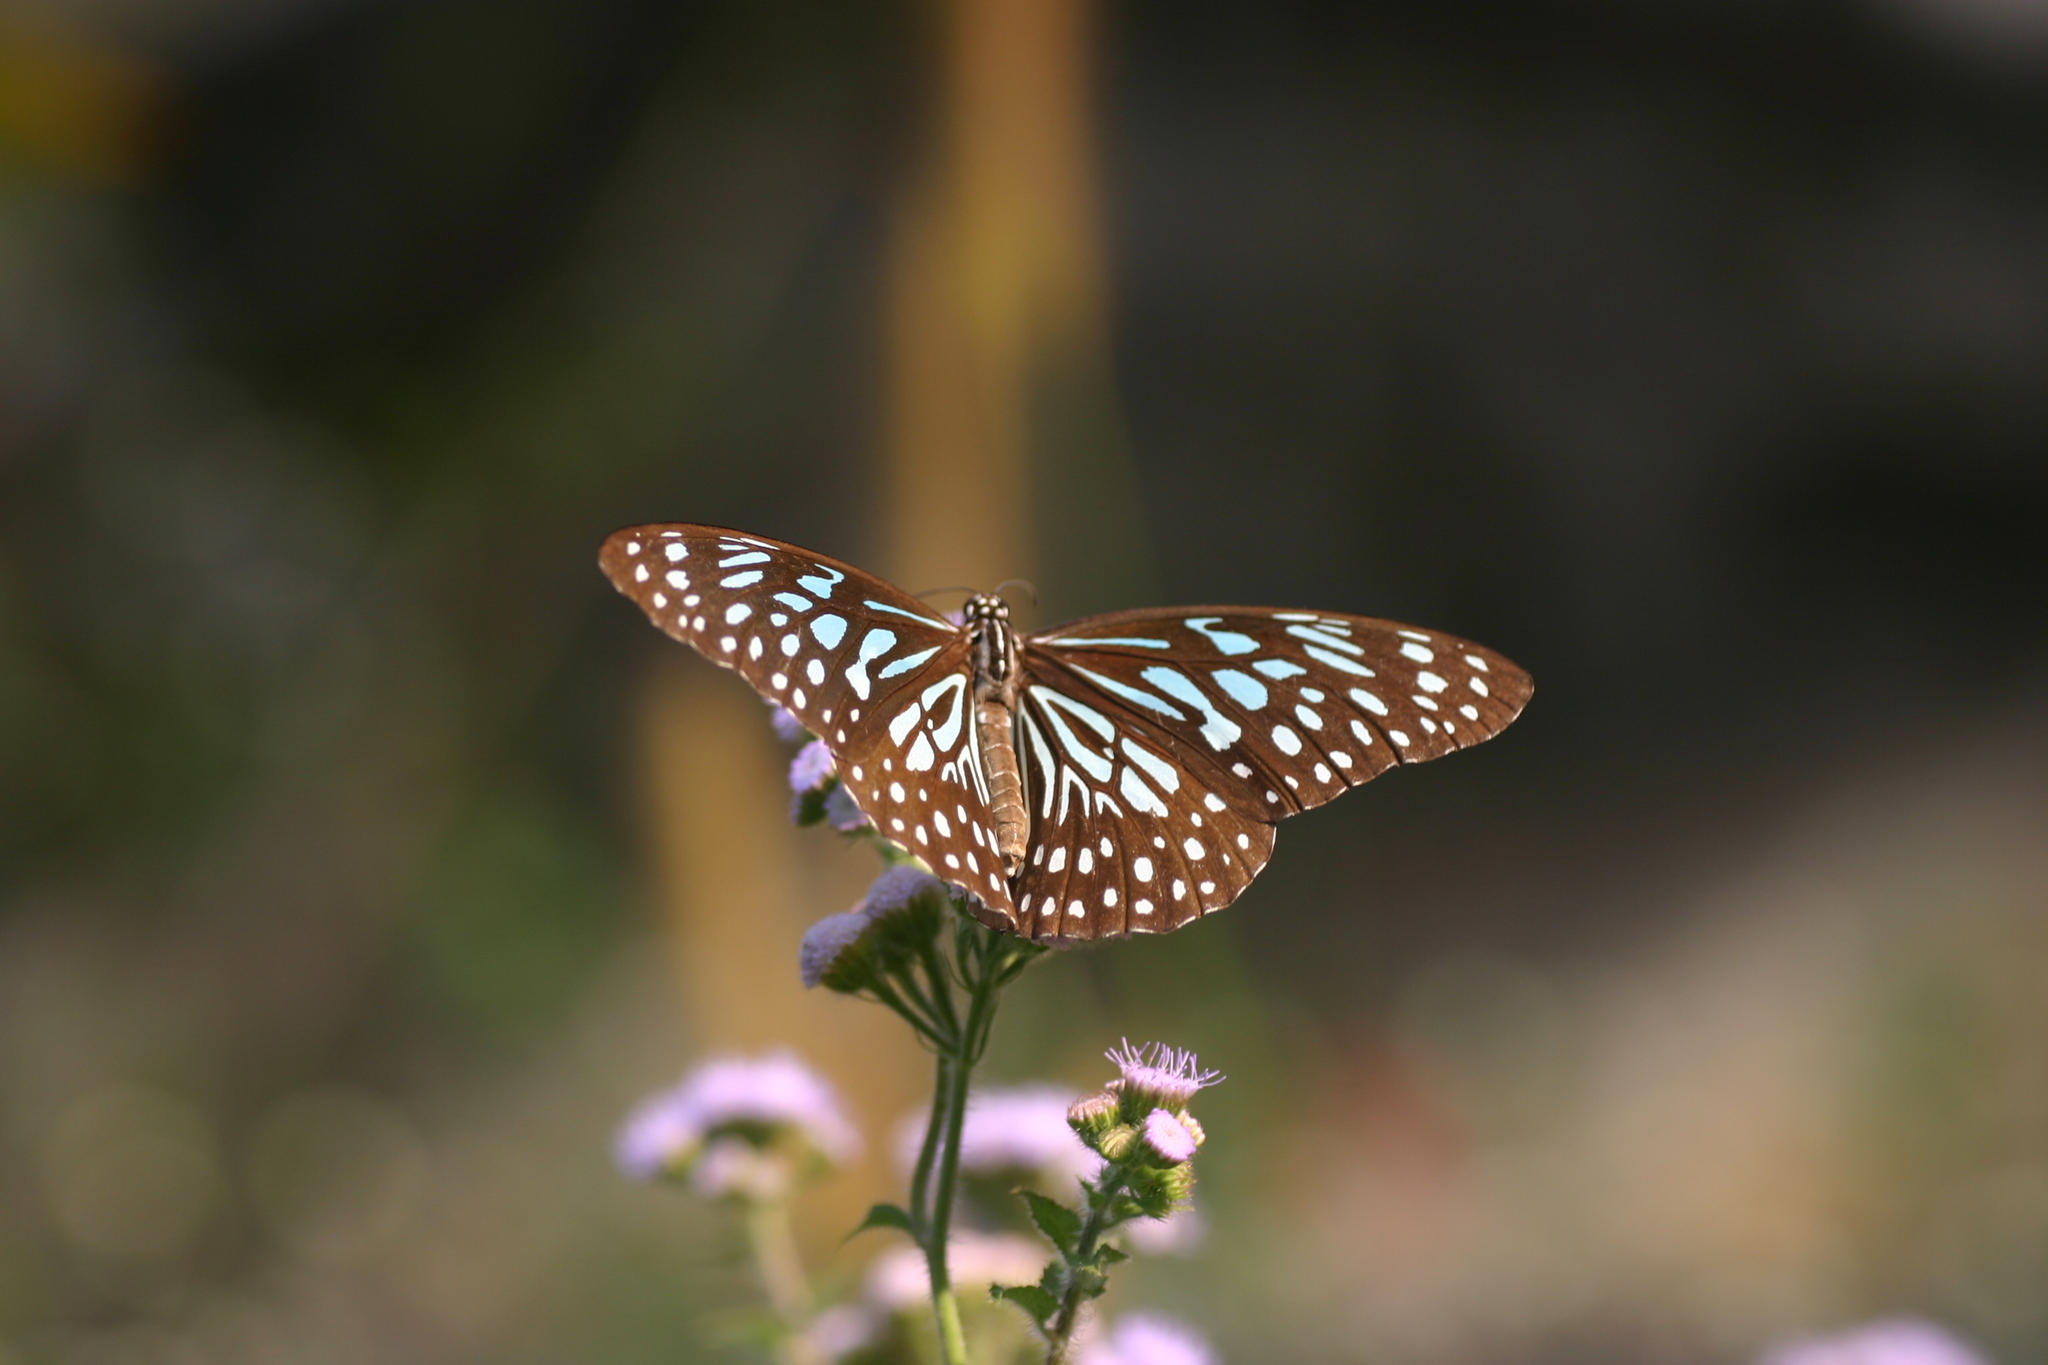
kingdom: Animalia
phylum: Arthropoda
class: Insecta
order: Lepidoptera
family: Nymphalidae
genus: Tirumala
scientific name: Tirumala septentrionis
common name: Dark blue tiger butterfly
